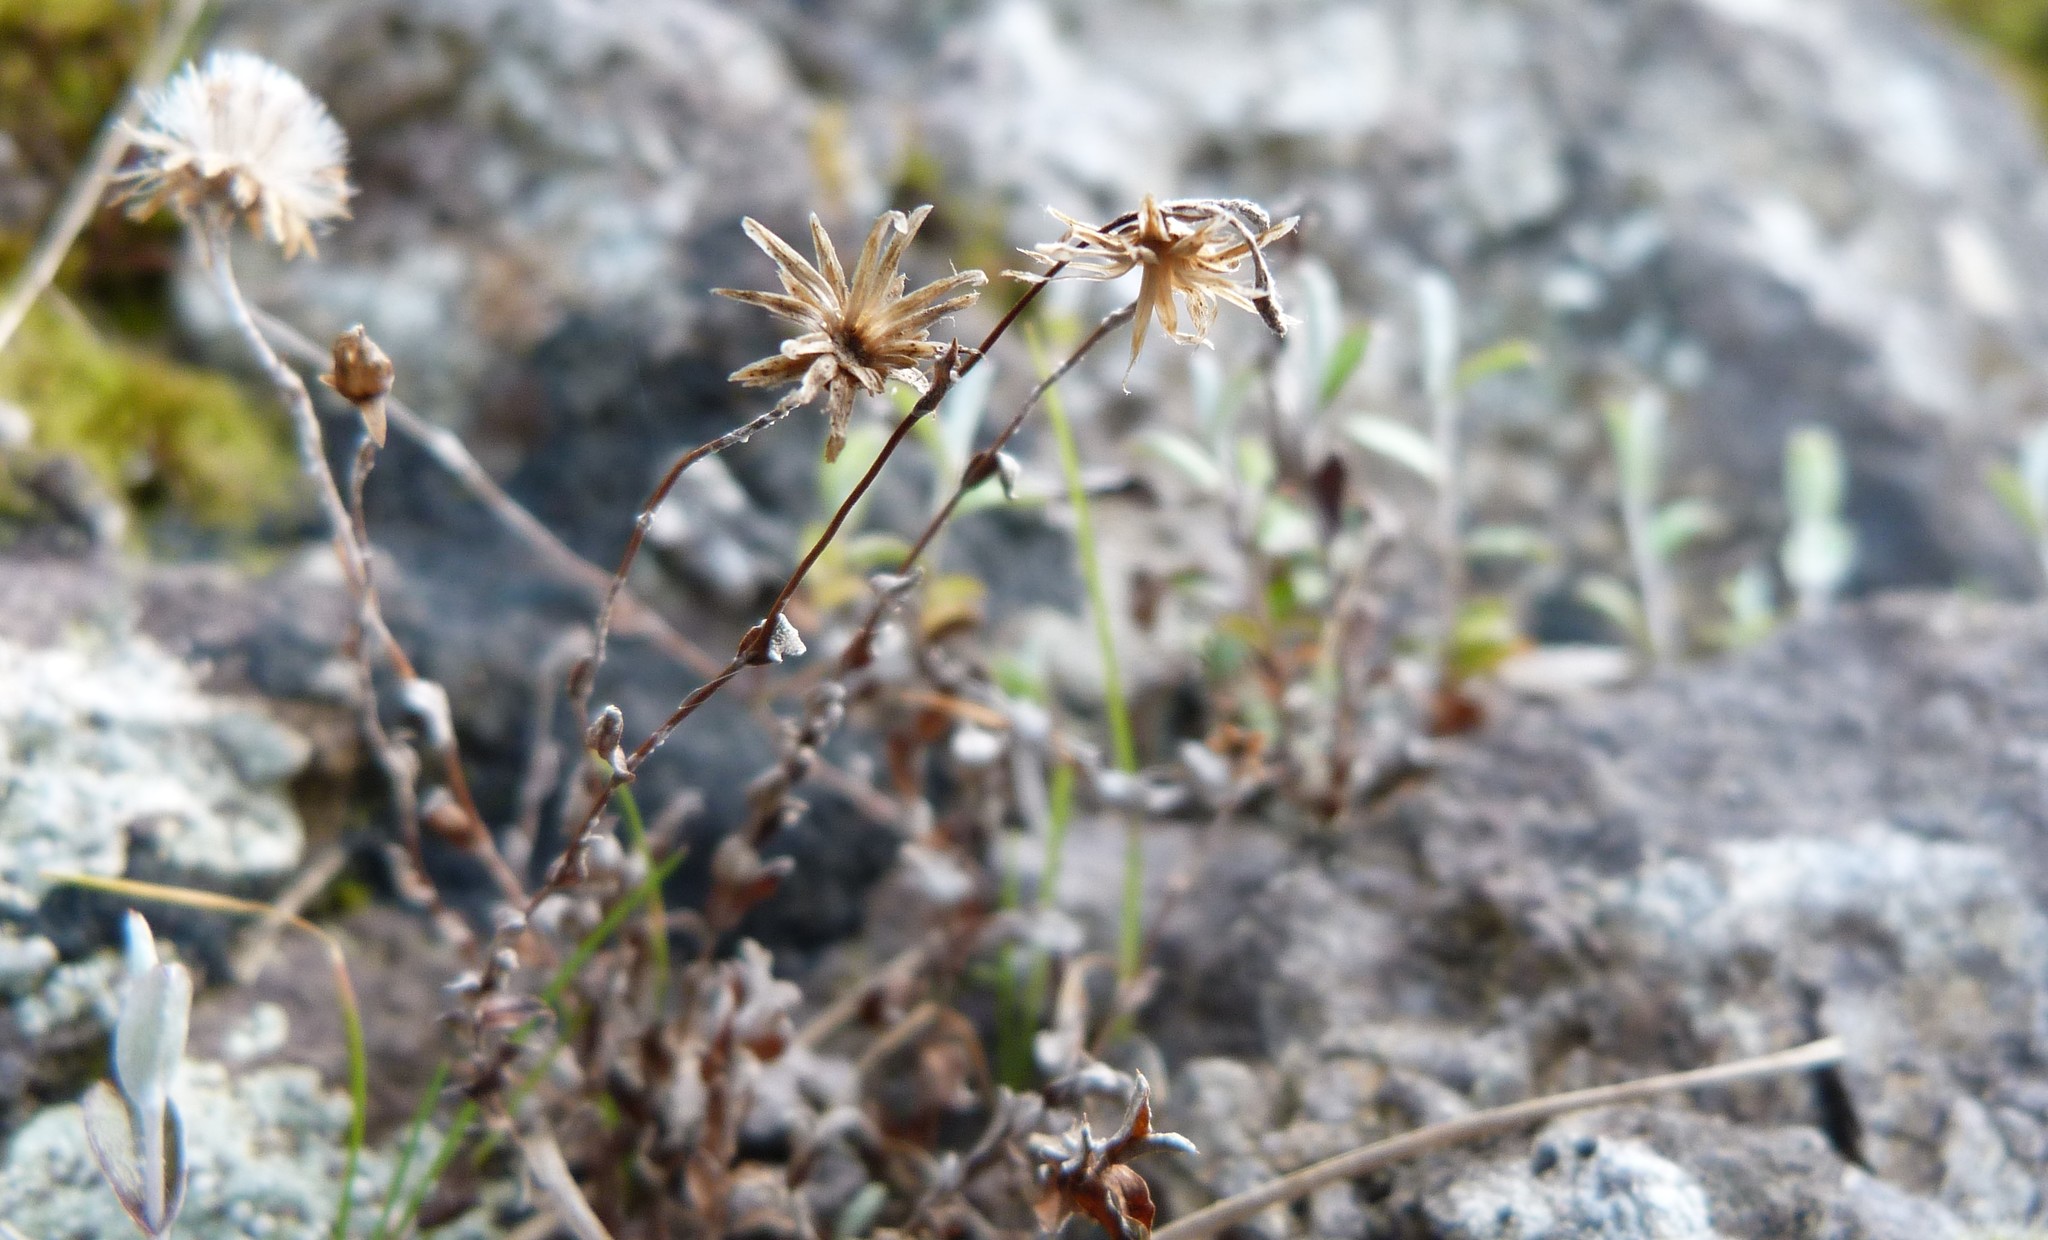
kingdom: Plantae
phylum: Tracheophyta
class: Magnoliopsida
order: Asterales
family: Asteraceae
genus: Helichrysum
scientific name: Helichrysum filicaule
